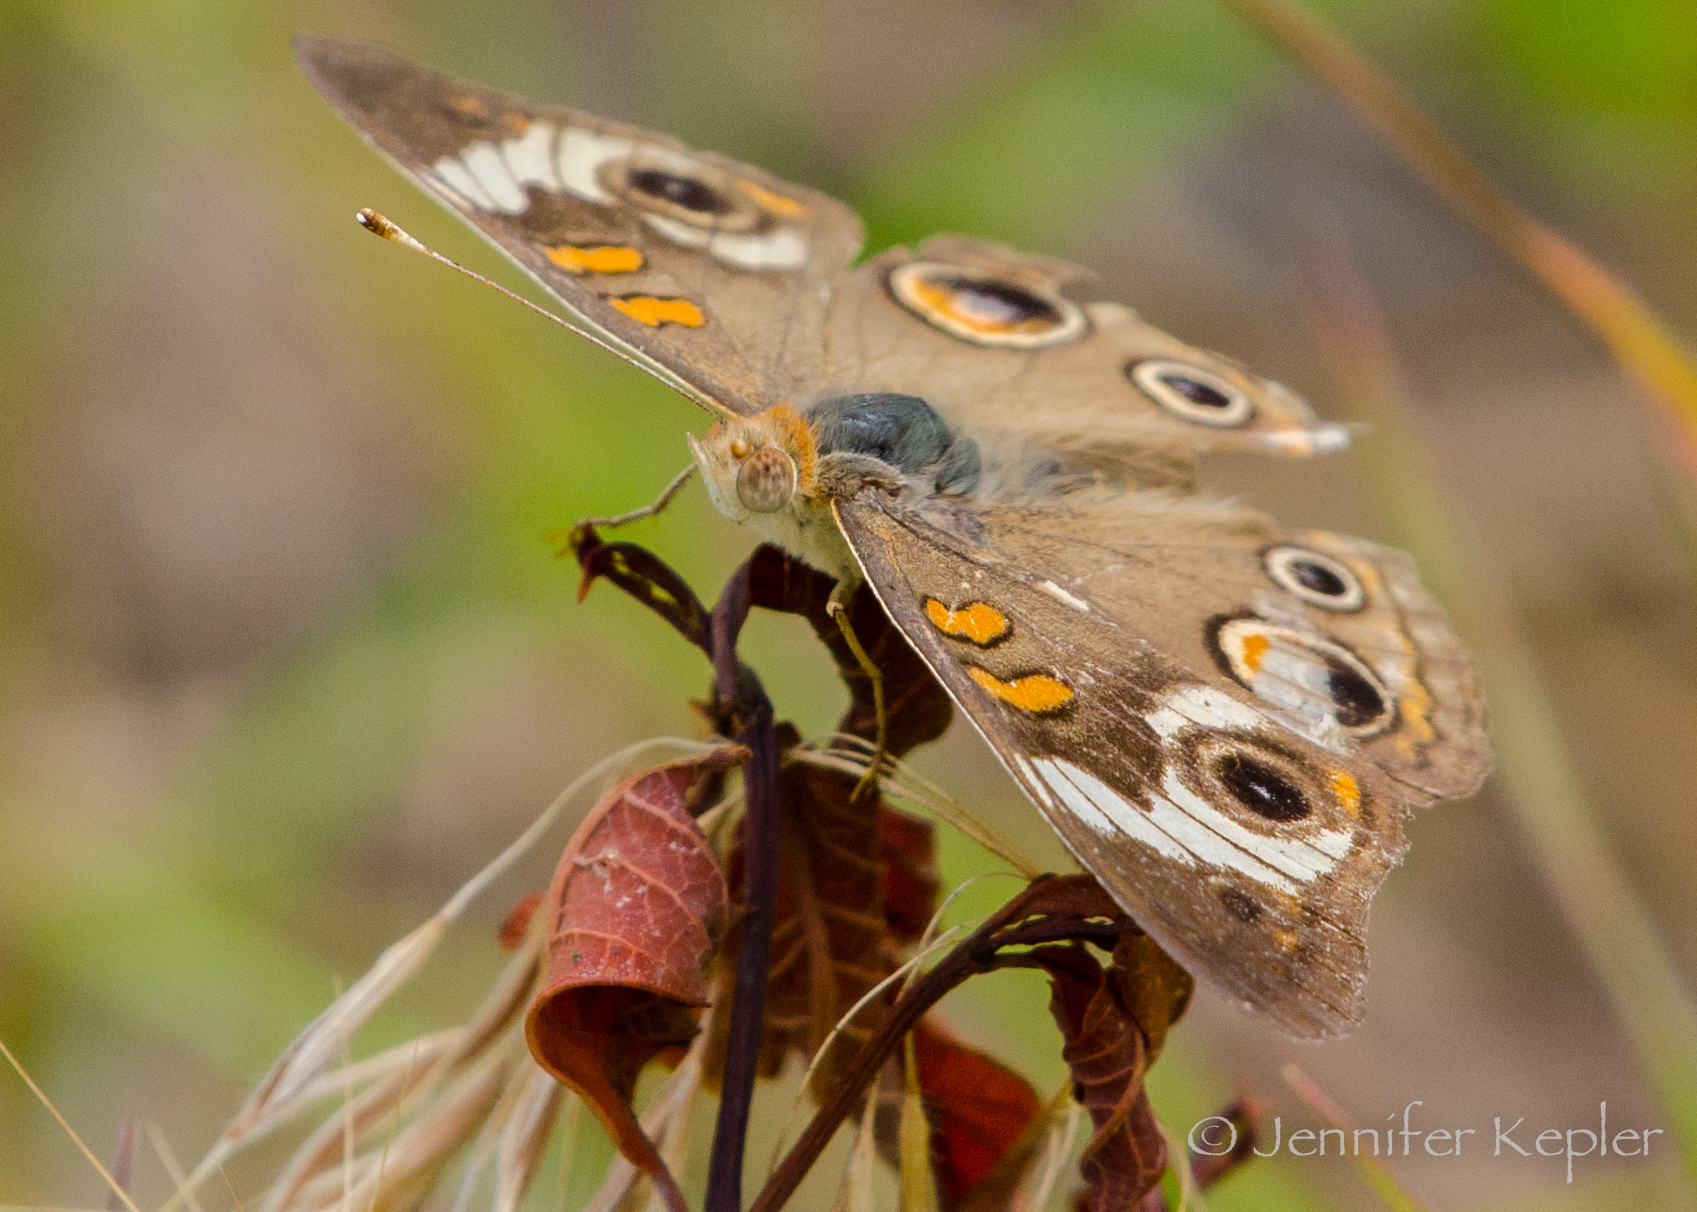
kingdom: Animalia
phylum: Arthropoda
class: Insecta
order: Lepidoptera
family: Nymphalidae
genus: Junonia
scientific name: Junonia coenia
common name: Common buckeye
